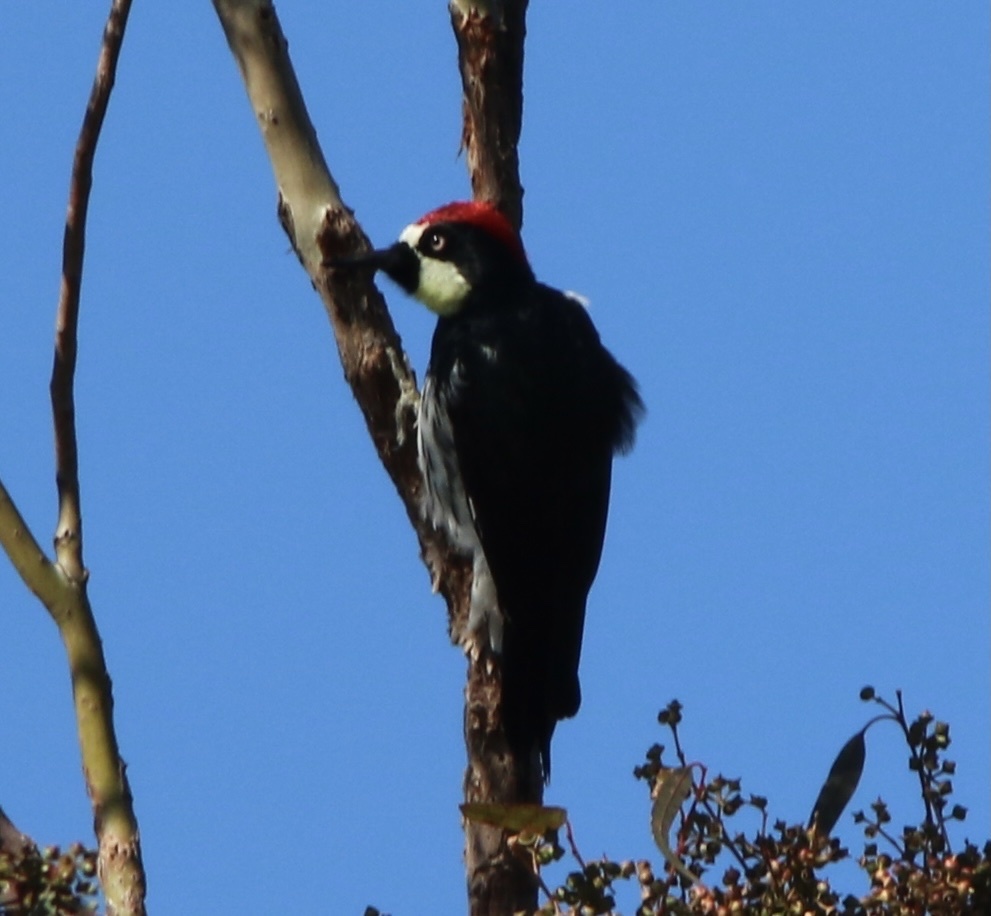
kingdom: Animalia
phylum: Chordata
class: Aves
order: Piciformes
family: Picidae
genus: Melanerpes
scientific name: Melanerpes formicivorus
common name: Acorn woodpecker
